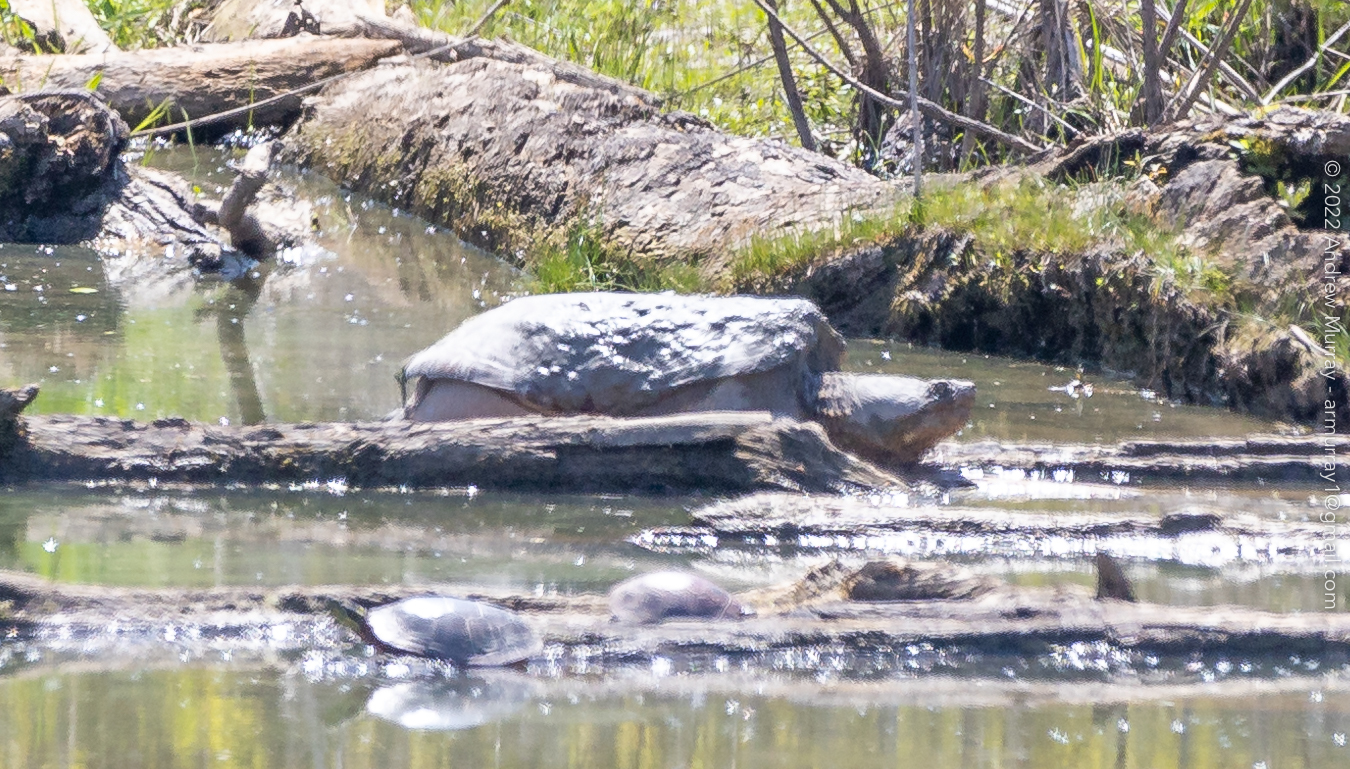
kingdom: Animalia
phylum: Chordata
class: Testudines
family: Chelydridae
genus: Chelydra
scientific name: Chelydra serpentina
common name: Common snapping turtle
